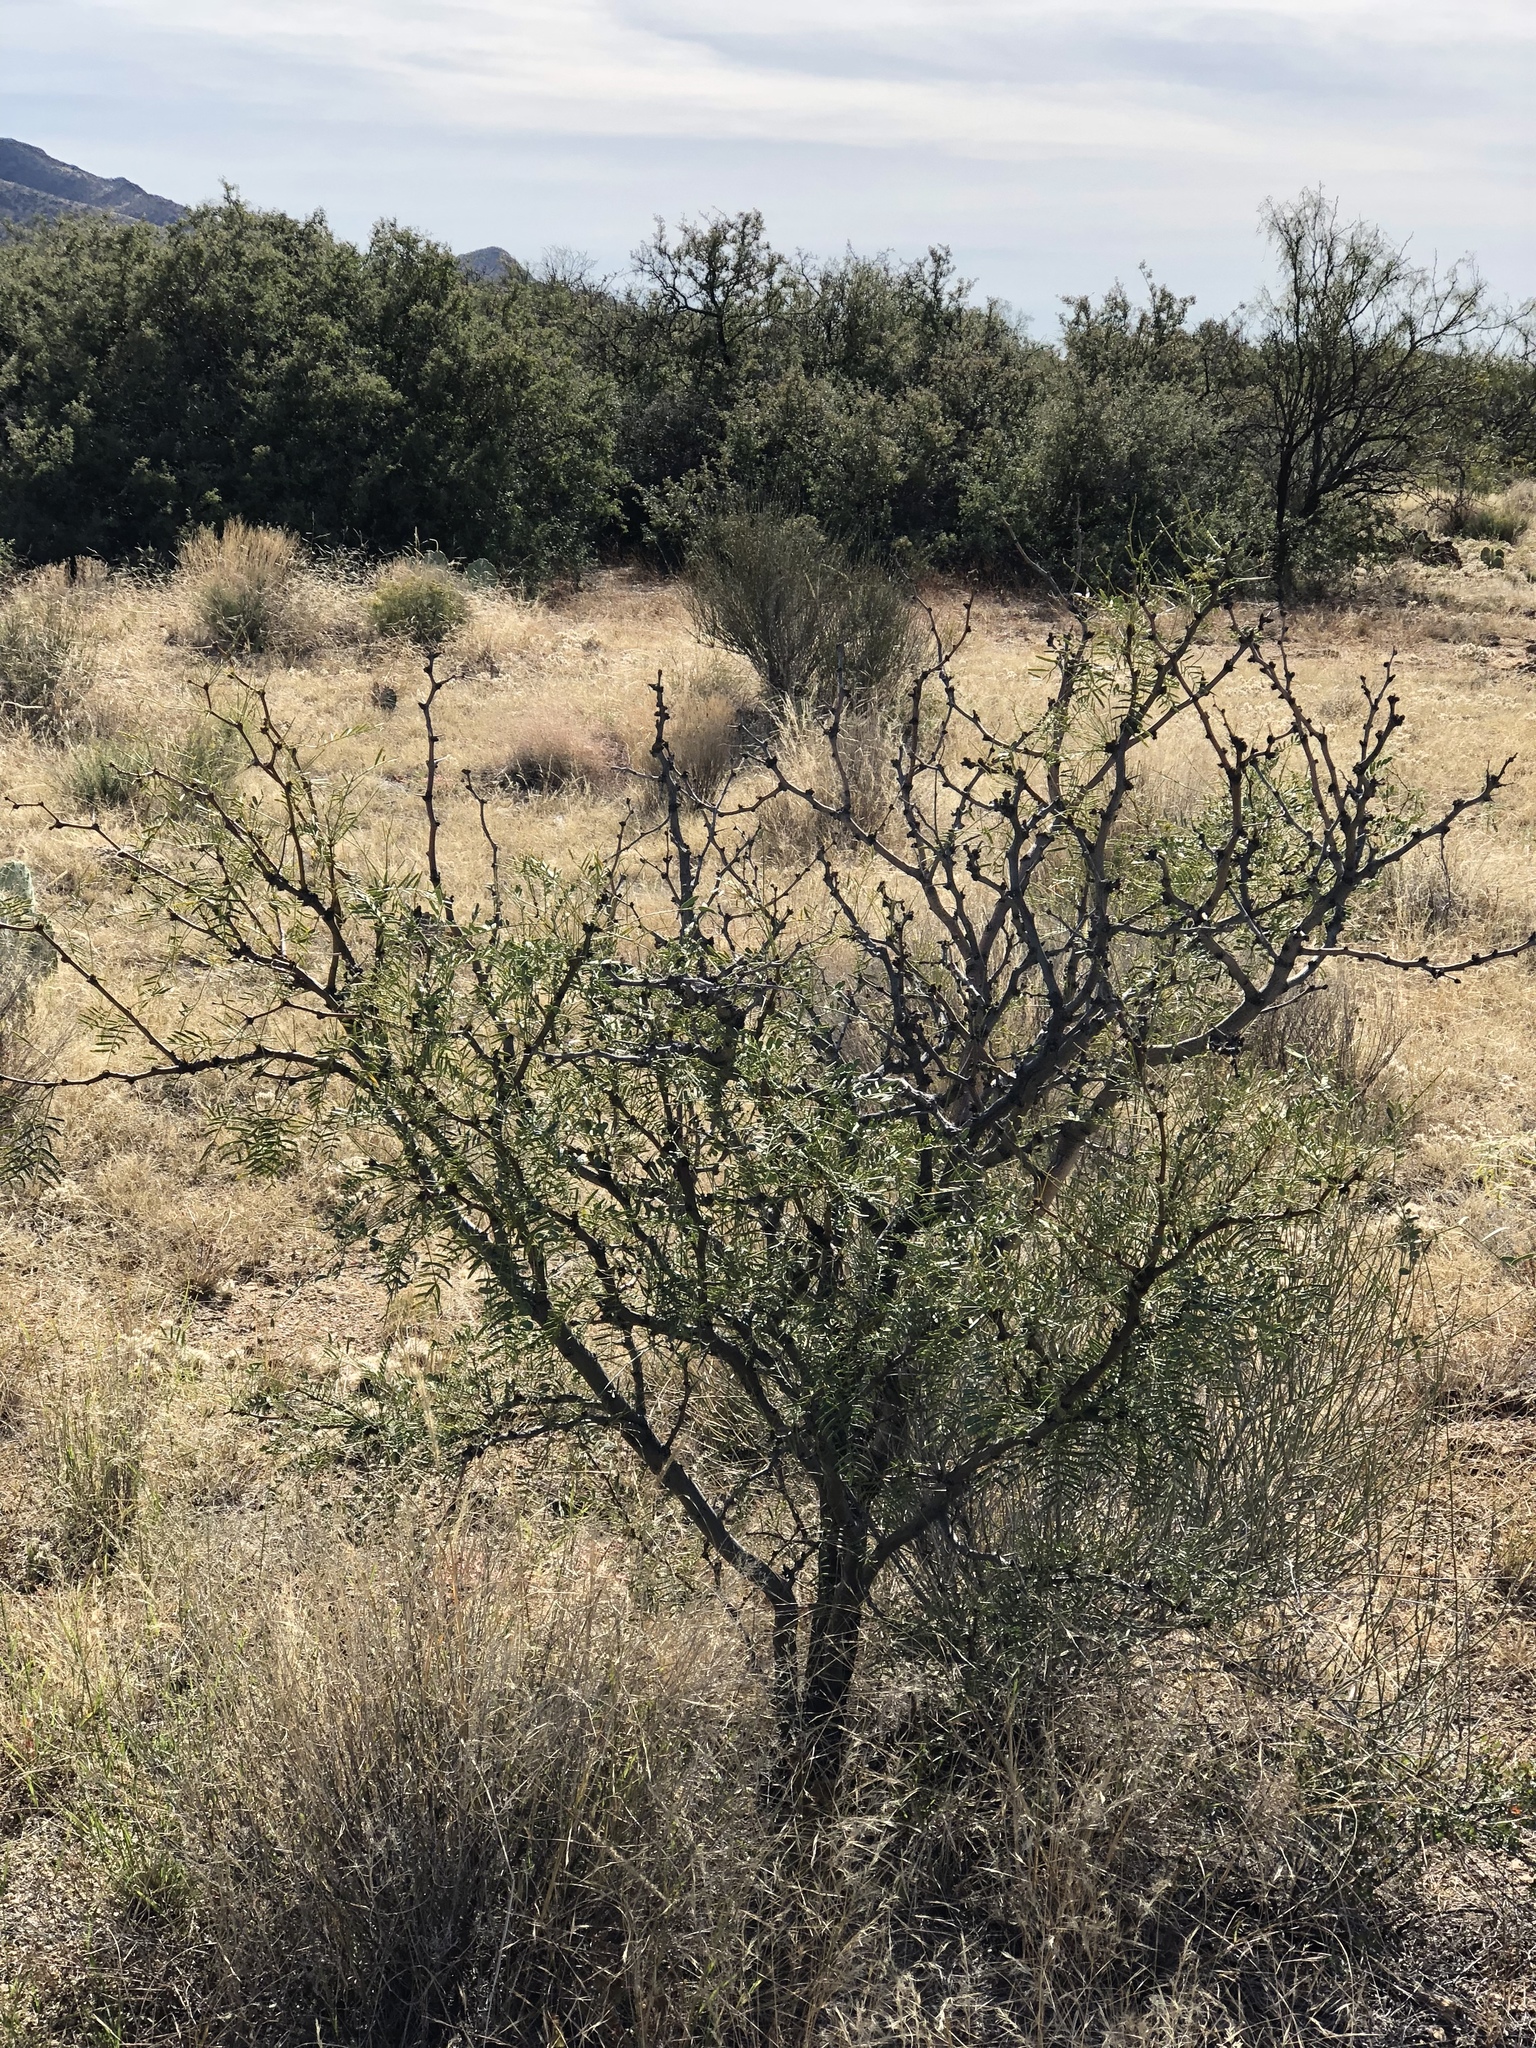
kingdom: Plantae
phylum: Tracheophyta
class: Magnoliopsida
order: Fabales
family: Fabaceae
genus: Prosopis
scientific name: Prosopis glandulosa
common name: Honey mesquite
